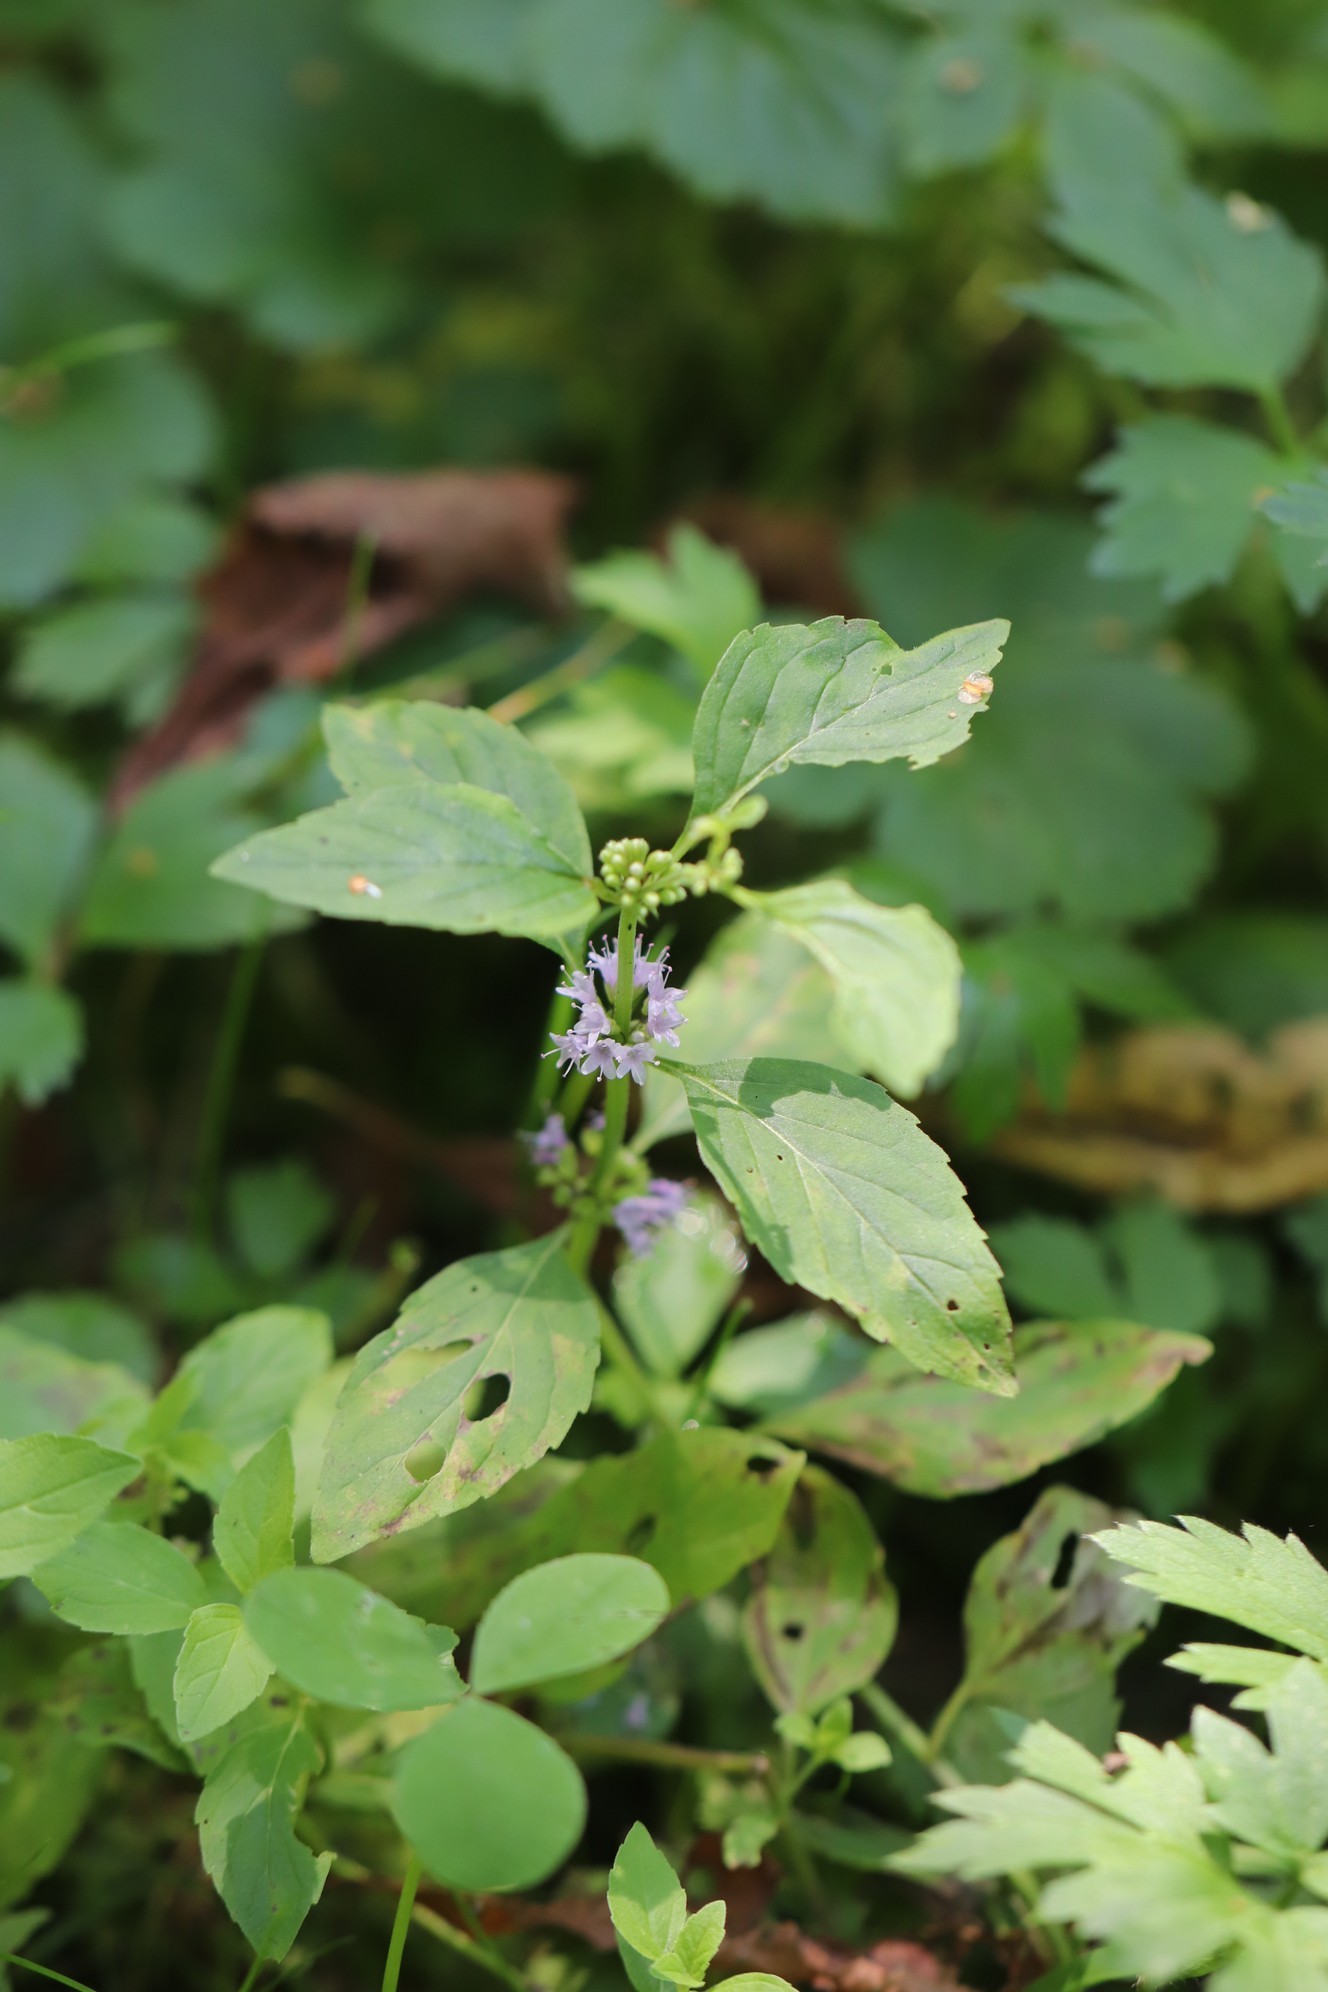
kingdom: Plantae
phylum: Tracheophyta
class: Magnoliopsida
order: Lamiales
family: Lamiaceae
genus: Mentha
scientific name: Mentha arvensis
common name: Corn mint
